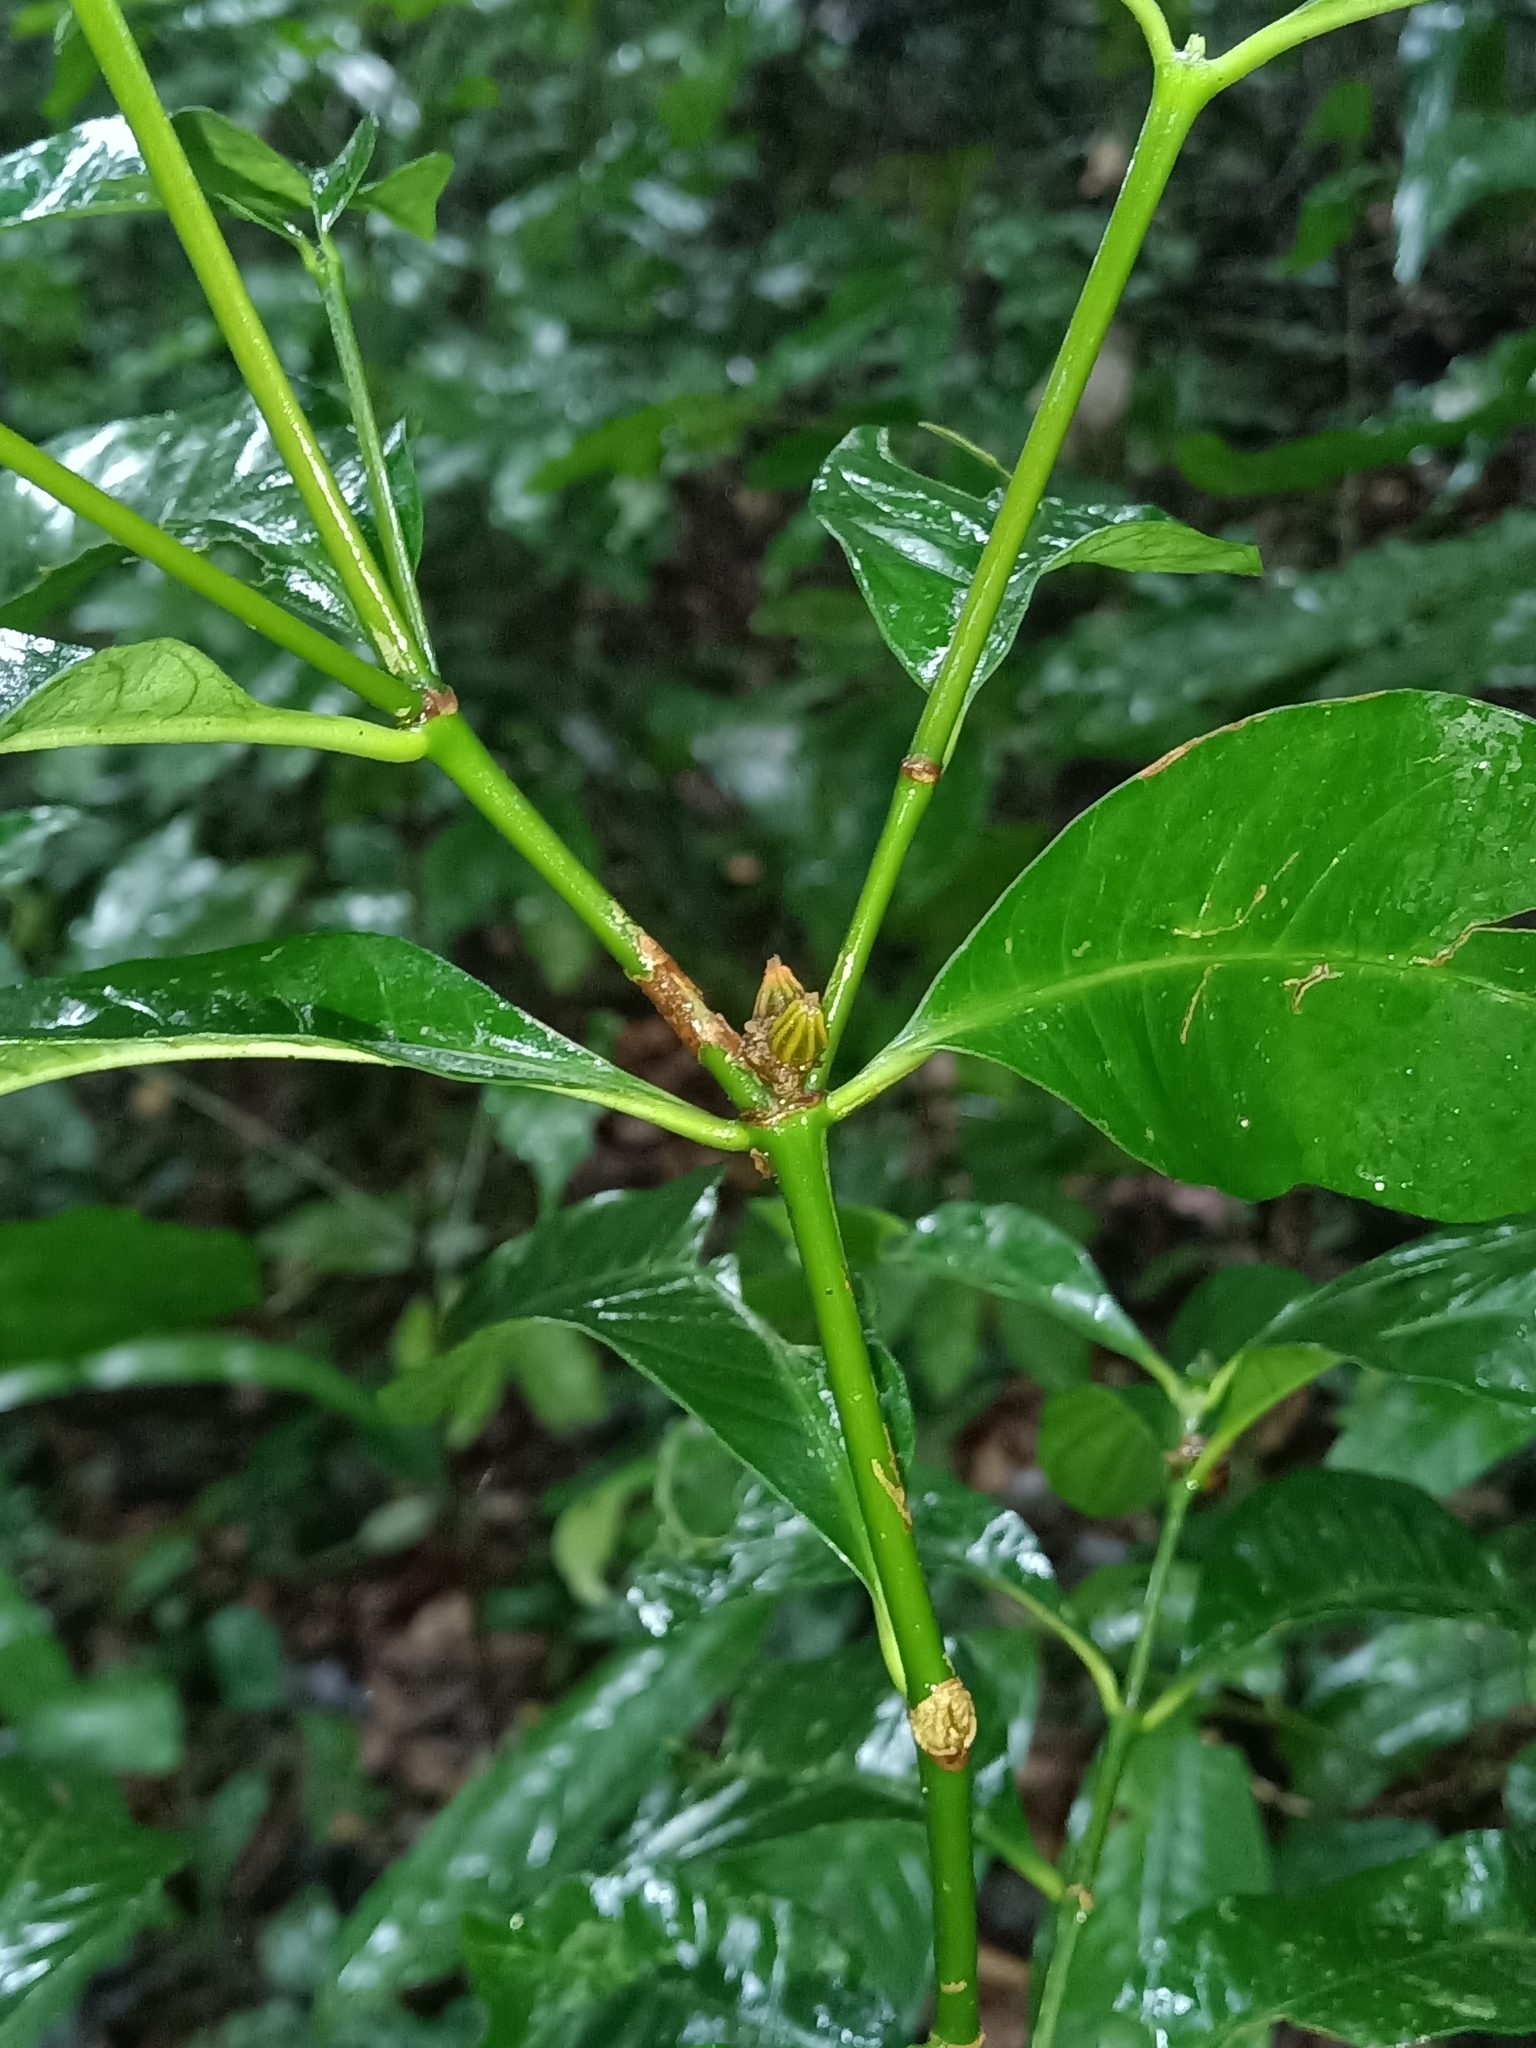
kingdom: Plantae
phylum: Tracheophyta
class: Magnoliopsida
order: Gentianales
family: Rubiaceae
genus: Eumachia
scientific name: Eumachia kappleri
